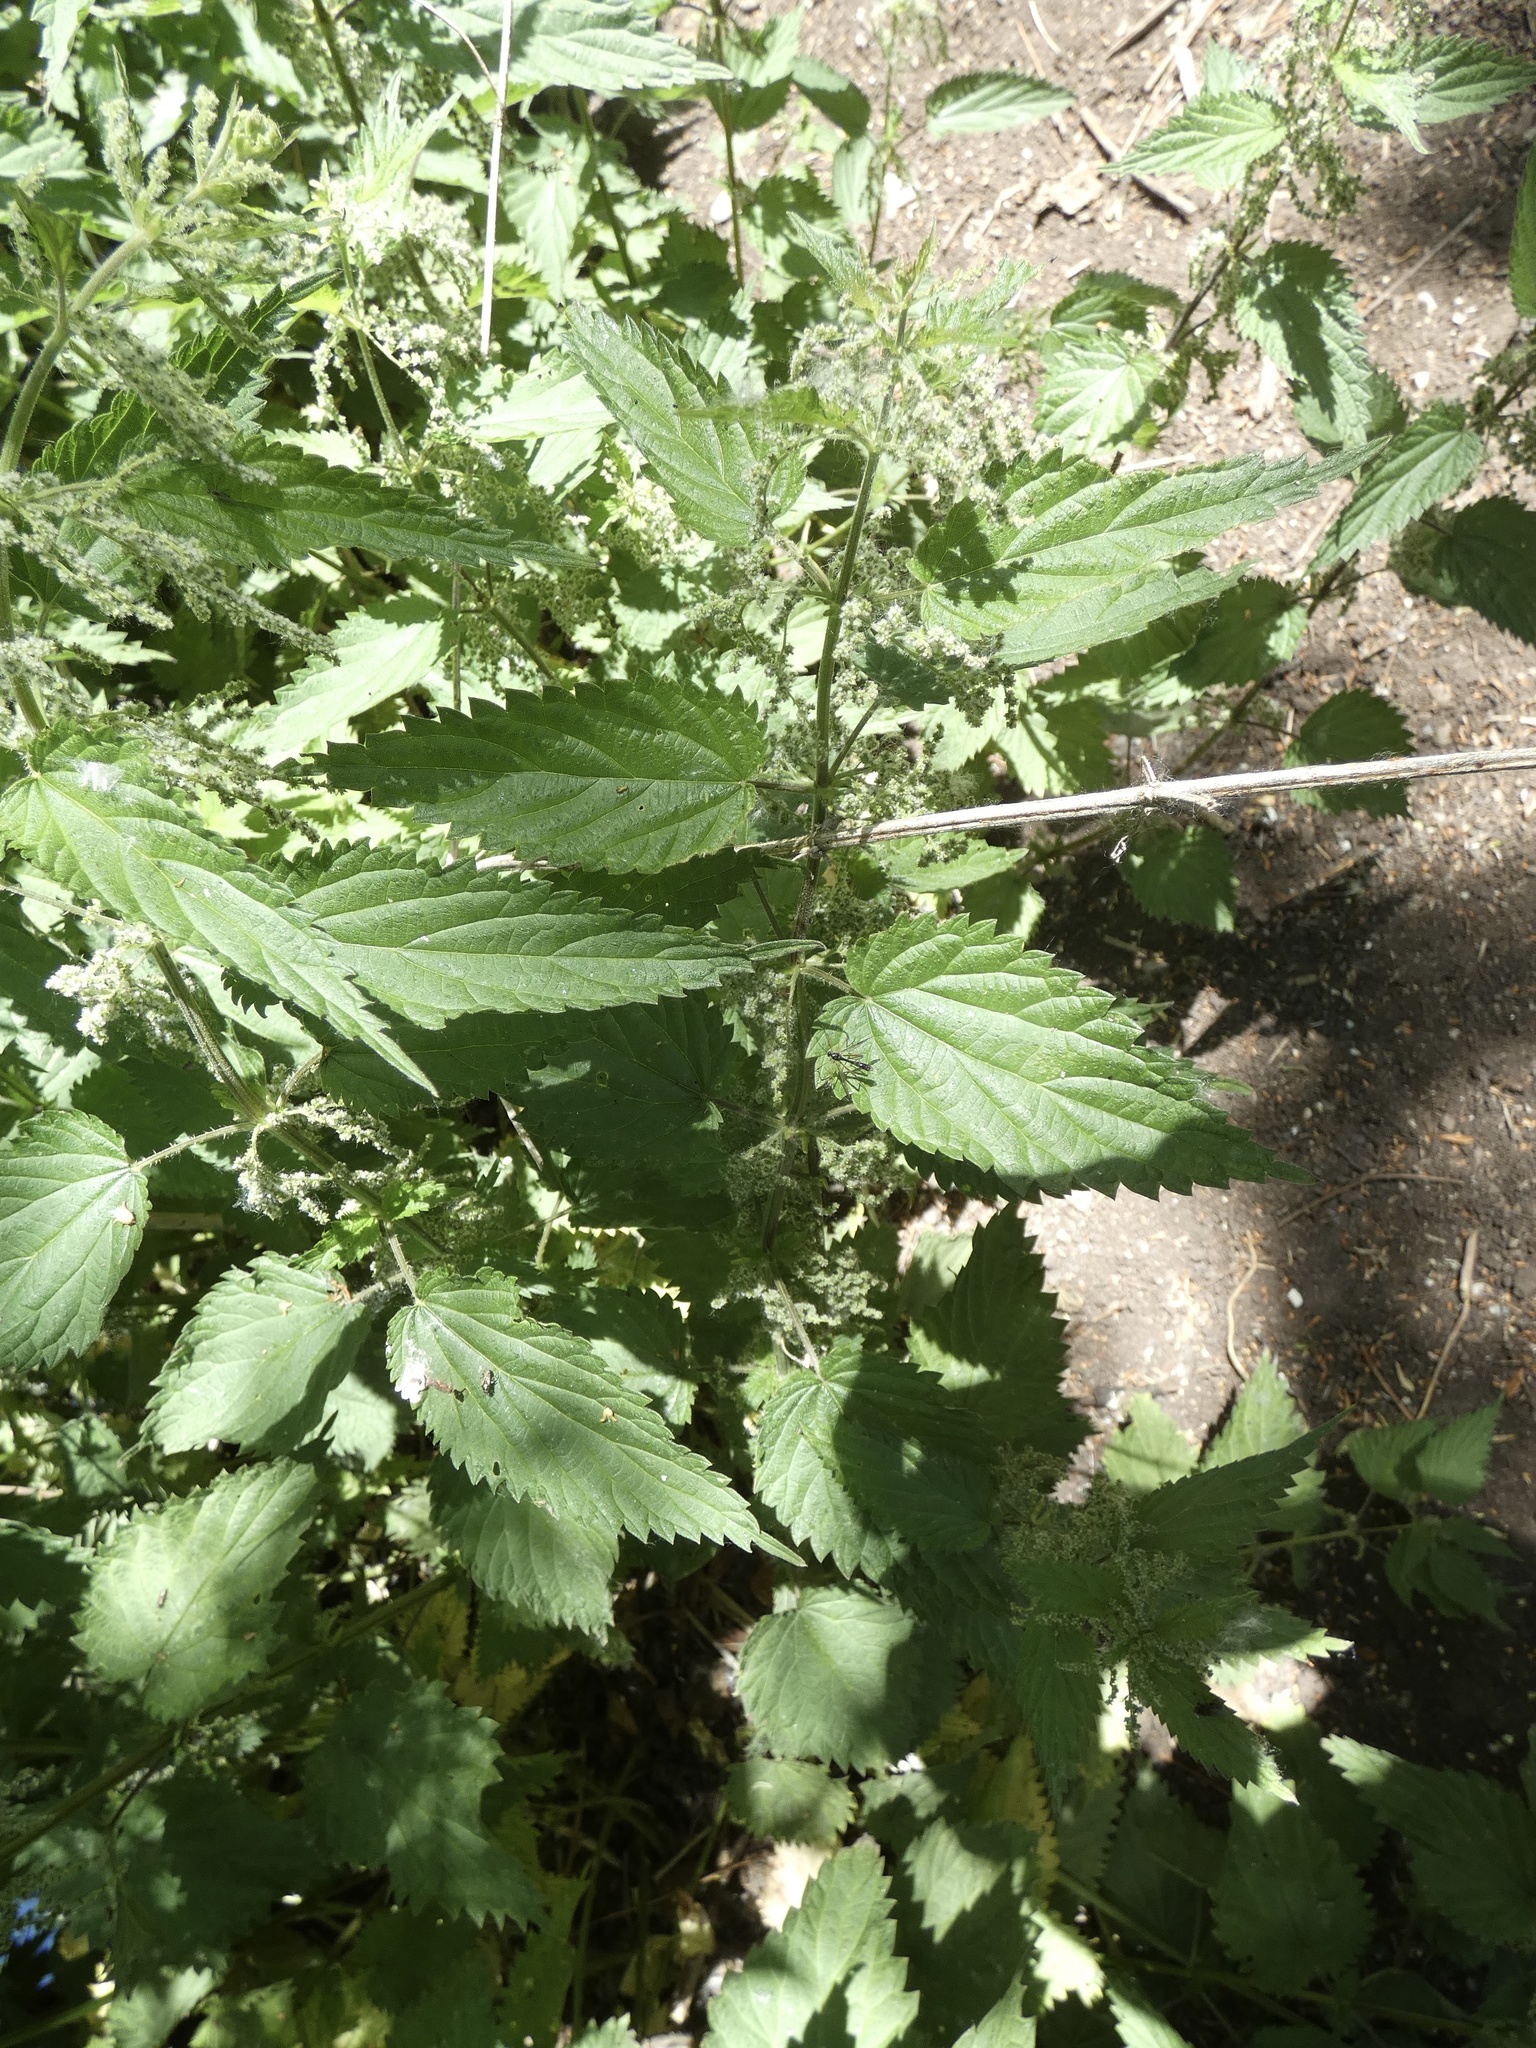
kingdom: Plantae
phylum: Tracheophyta
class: Magnoliopsida
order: Rosales
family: Urticaceae
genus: Urtica
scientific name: Urtica dioica
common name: Common nettle
